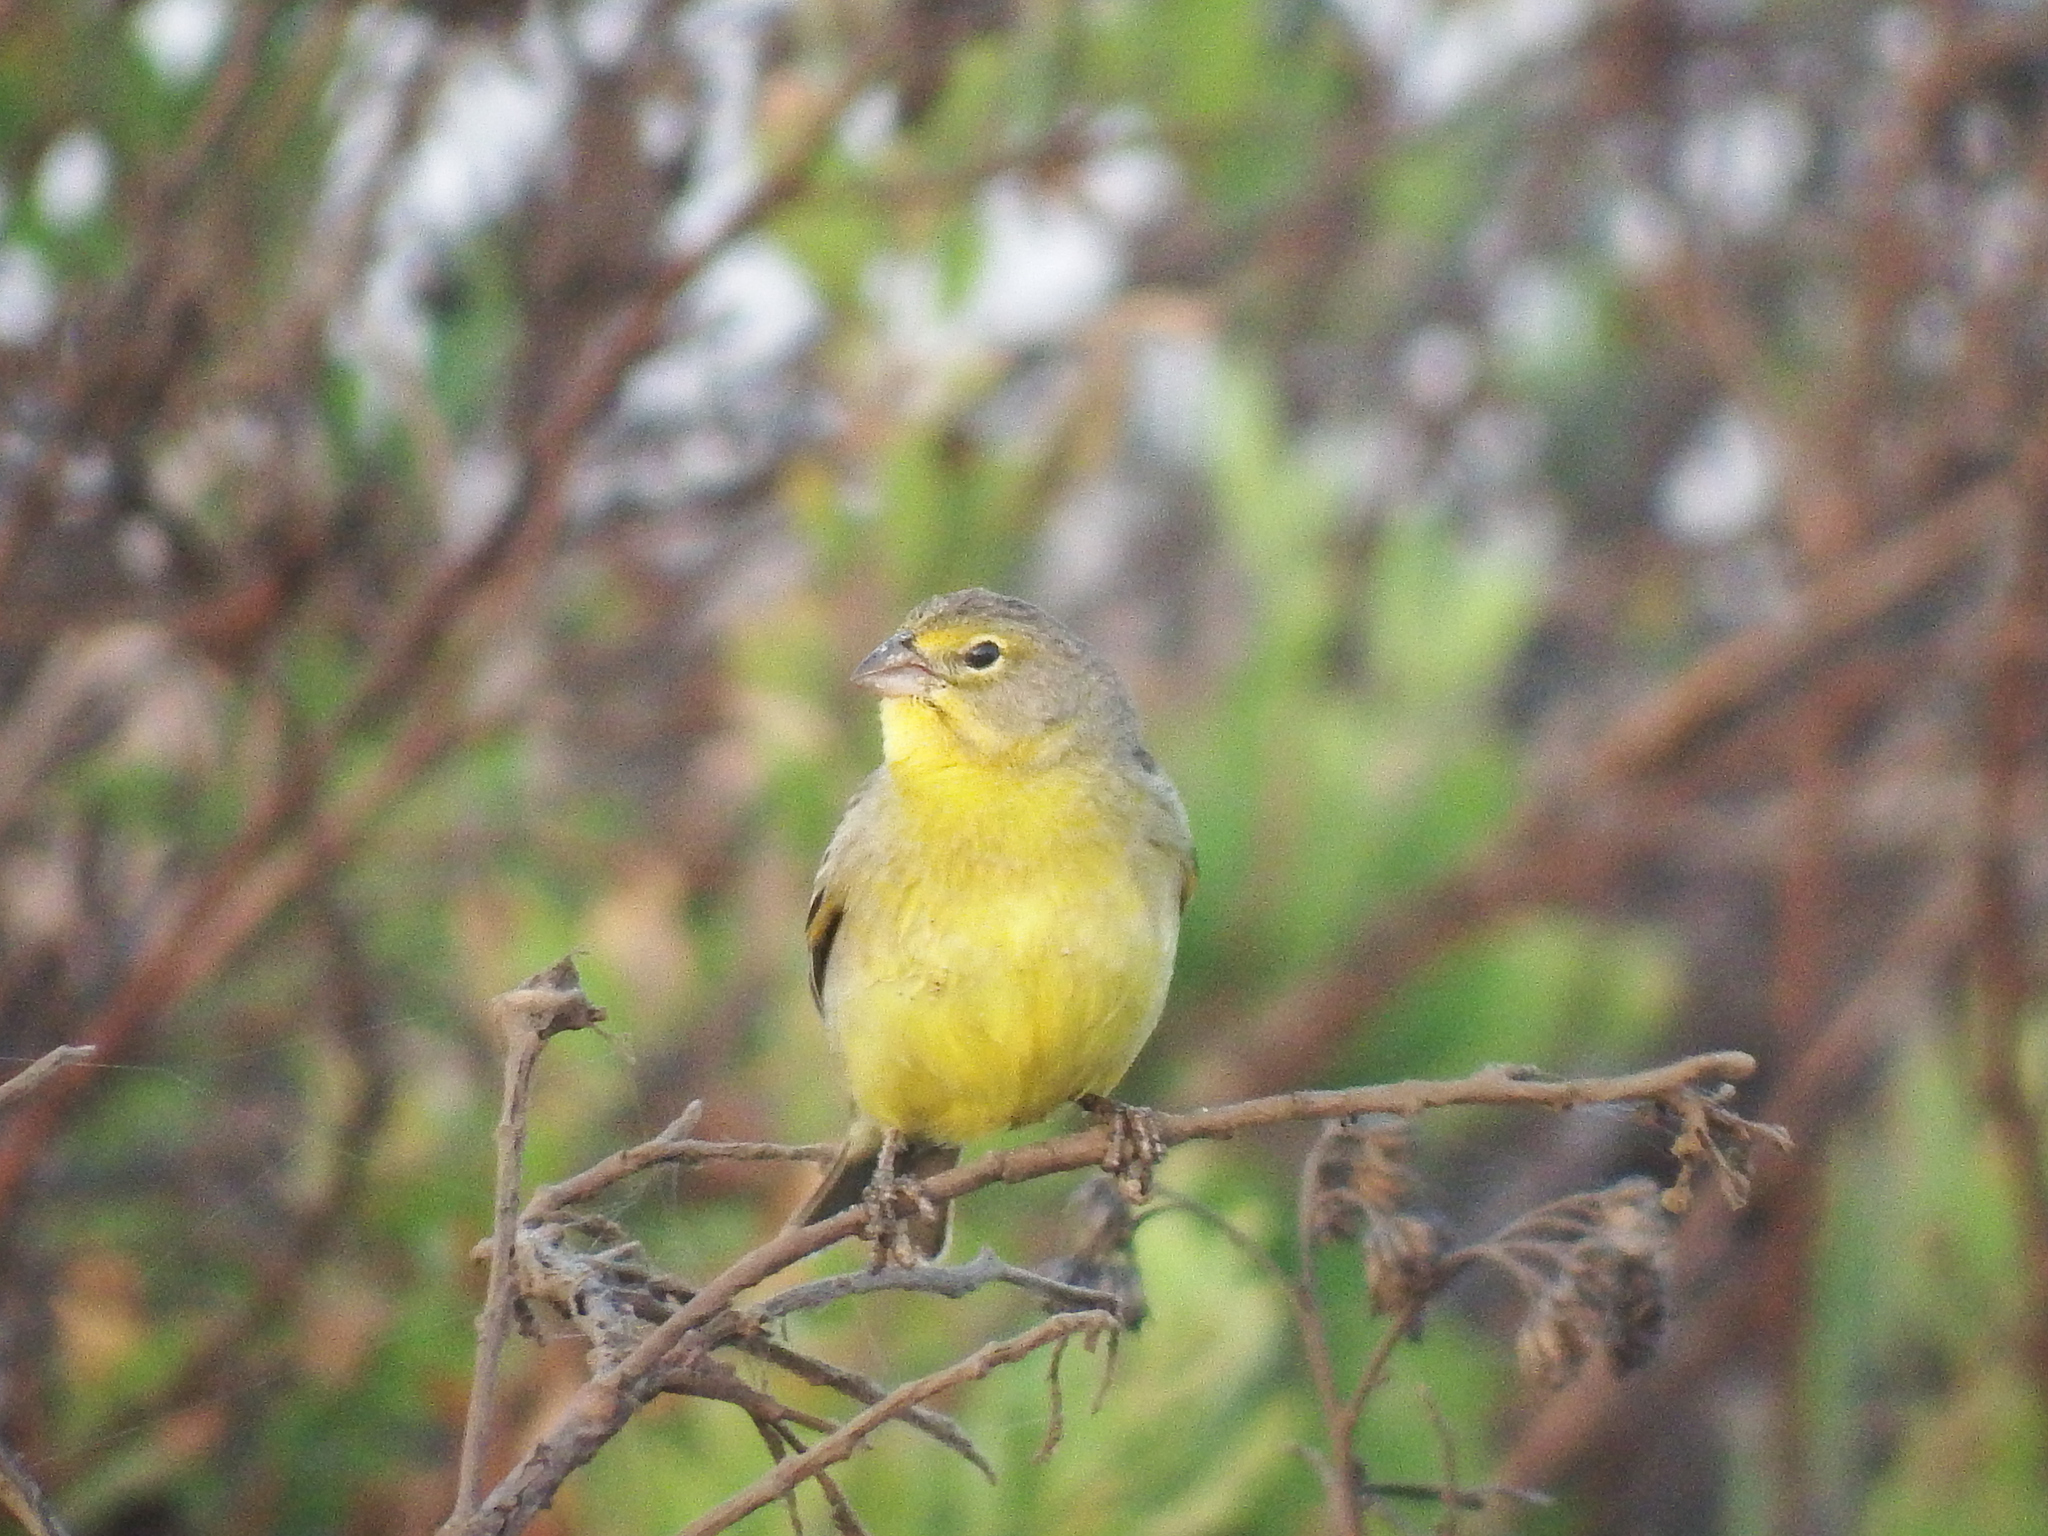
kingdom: Animalia
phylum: Chordata
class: Aves
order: Passeriformes
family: Thraupidae
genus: Sicalis
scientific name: Sicalis luteola
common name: Grassland yellow-finch
